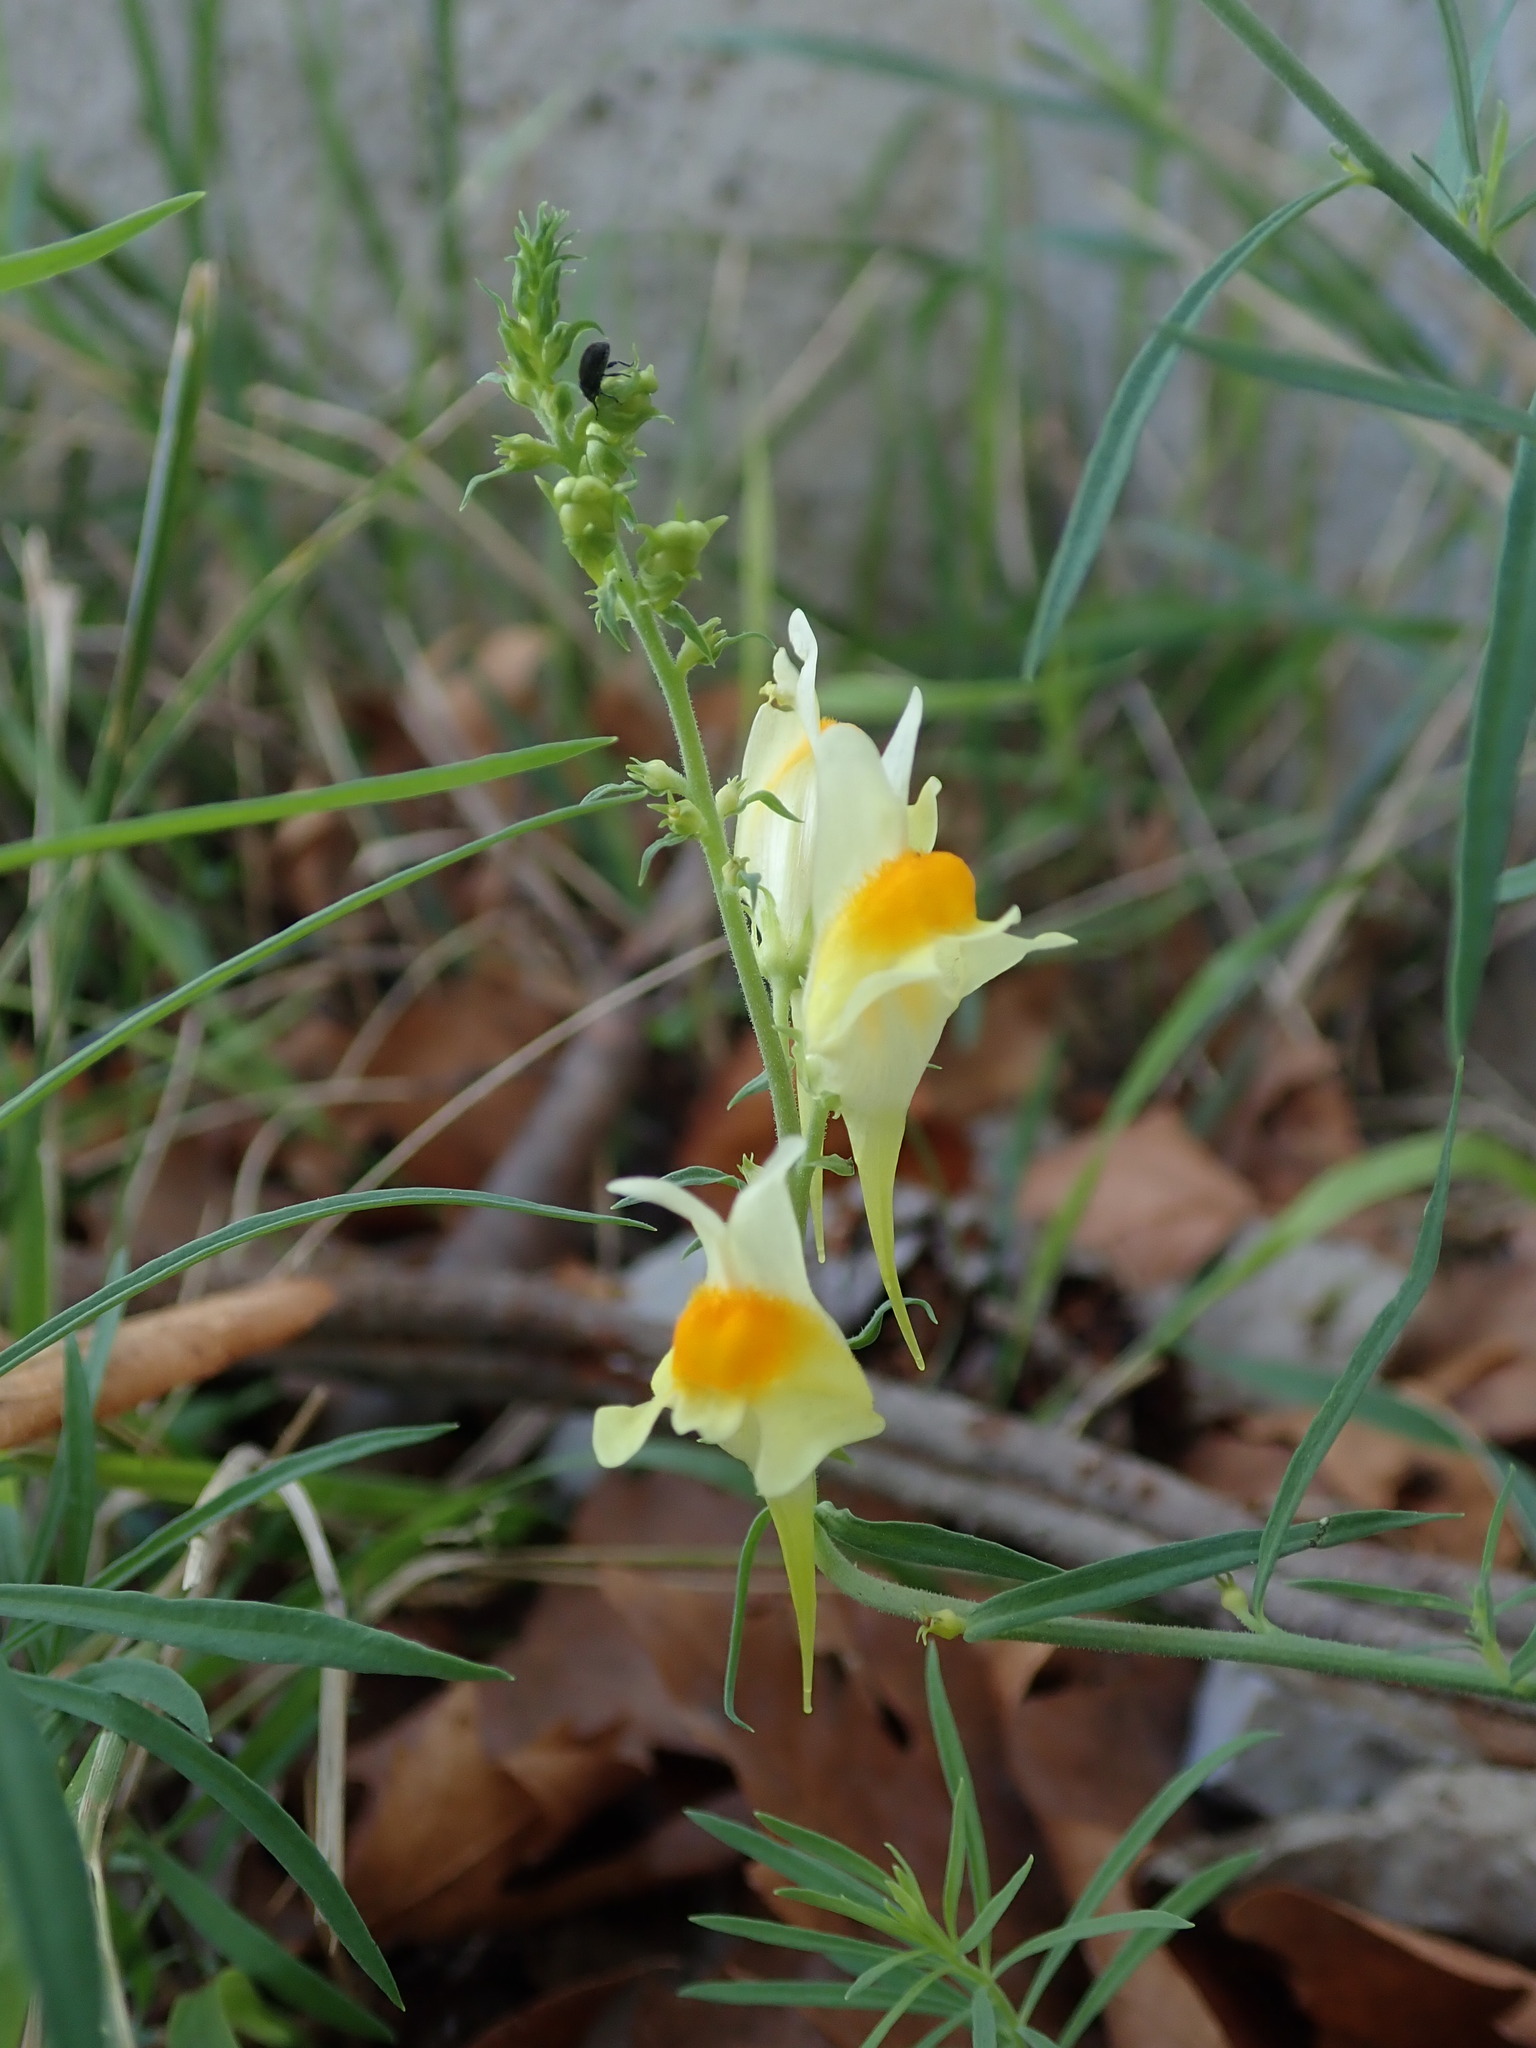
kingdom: Plantae
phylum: Tracheophyta
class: Magnoliopsida
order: Lamiales
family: Plantaginaceae
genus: Linaria
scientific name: Linaria vulgaris
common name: Butter and eggs
